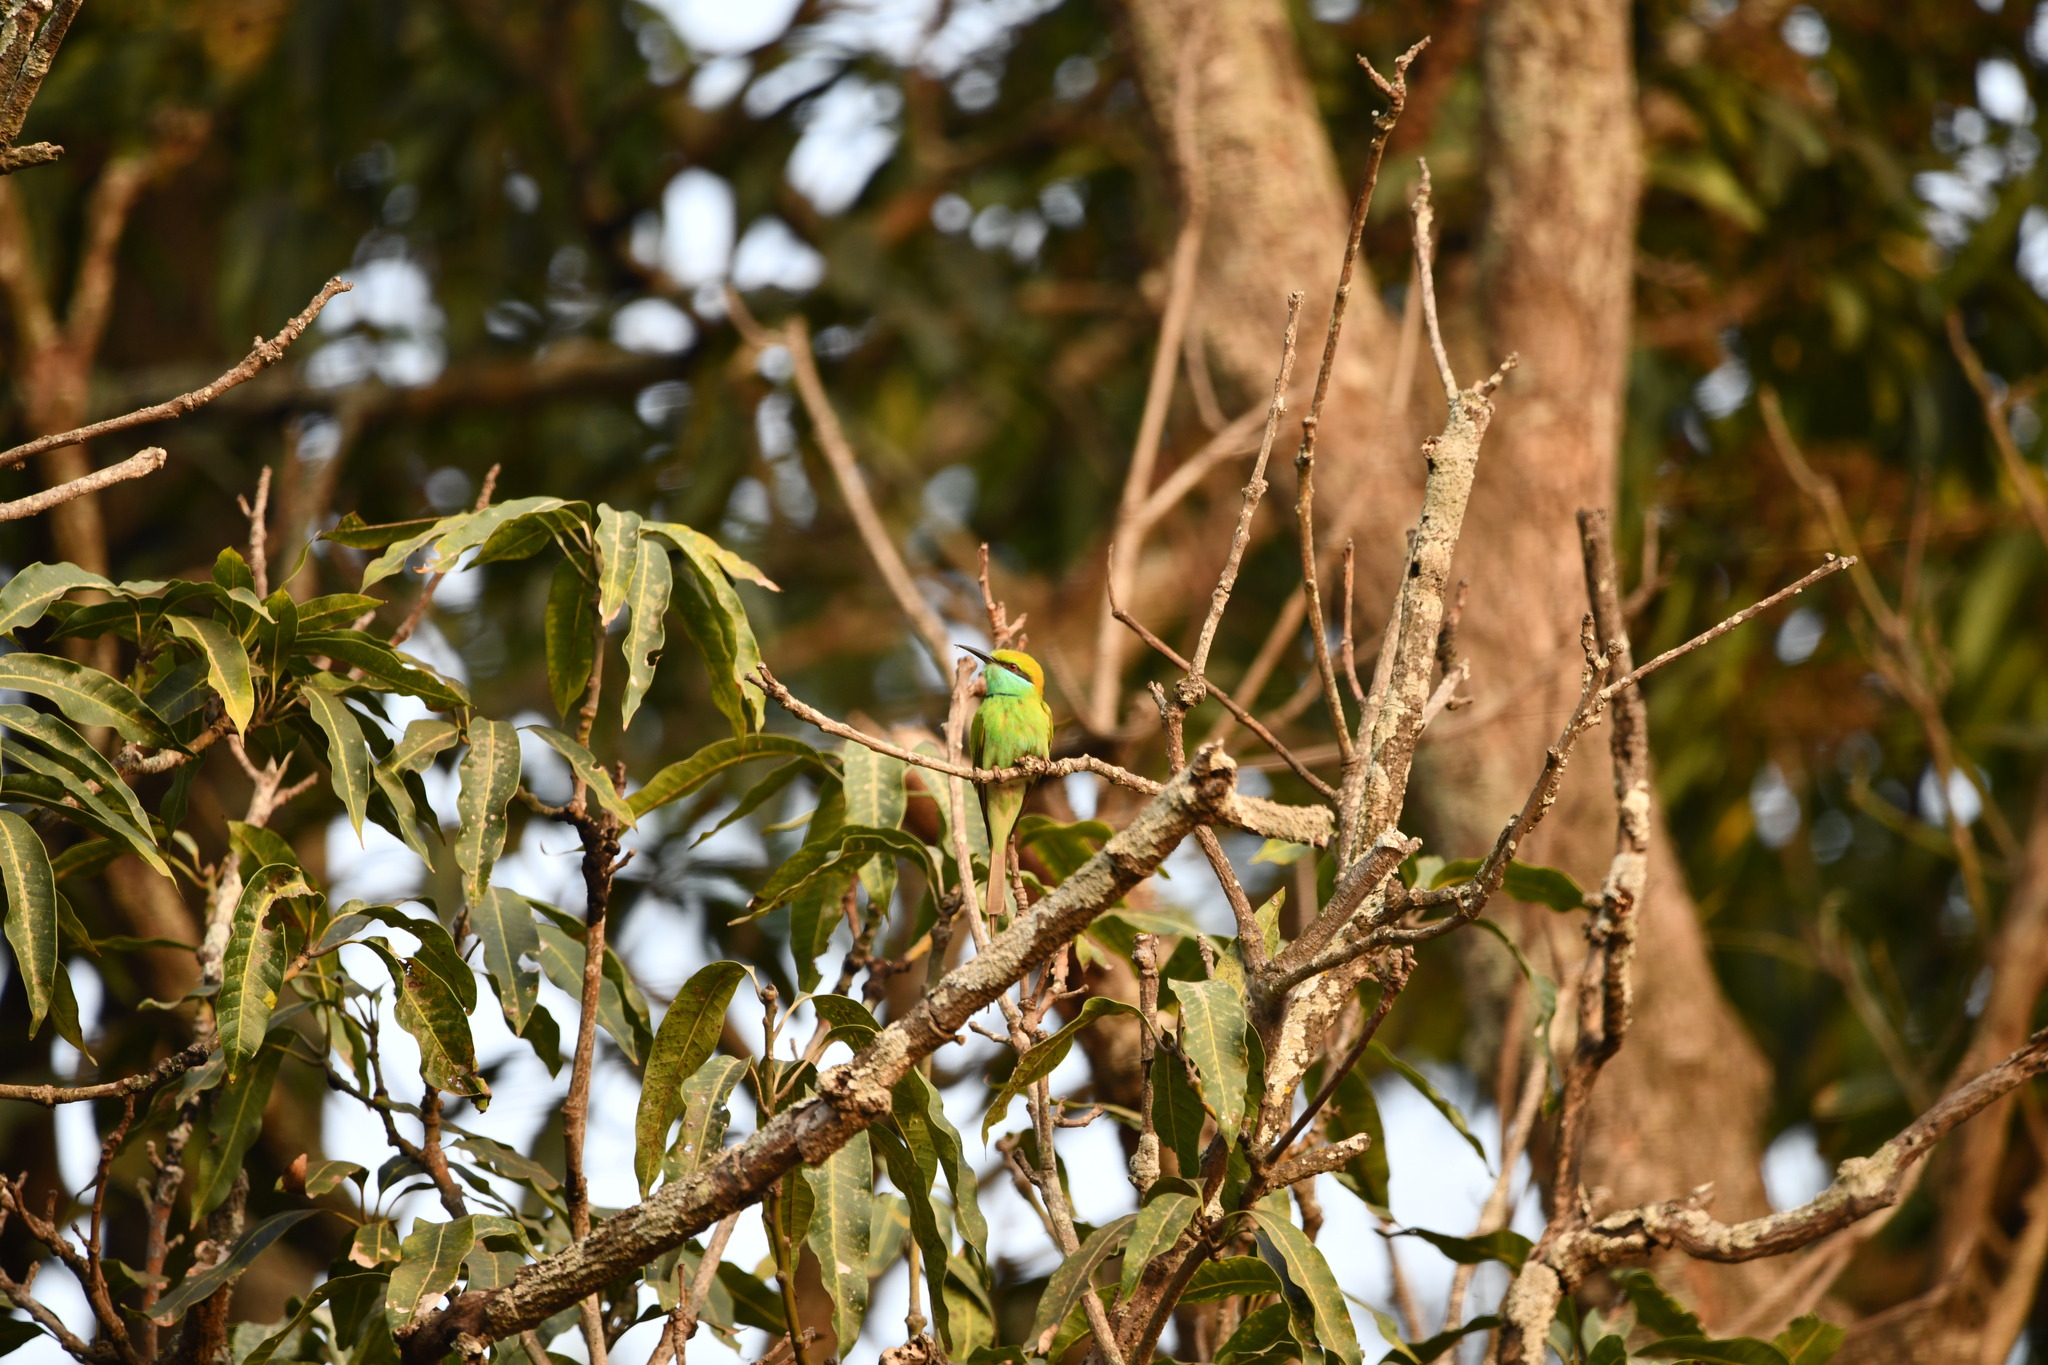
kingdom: Animalia
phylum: Chordata
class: Aves
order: Coraciiformes
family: Meropidae
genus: Merops
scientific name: Merops orientalis
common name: Green bee-eater
